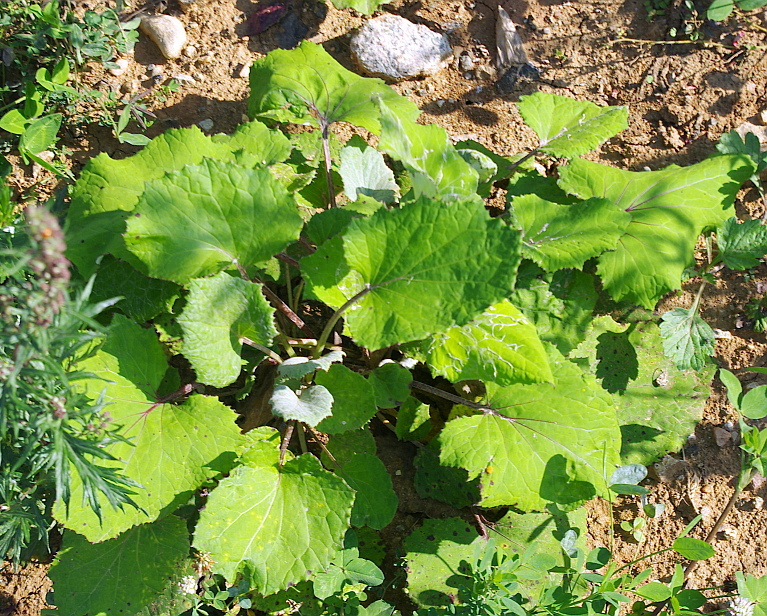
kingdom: Plantae
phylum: Tracheophyta
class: Magnoliopsida
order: Asterales
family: Asteraceae
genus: Tussilago
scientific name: Tussilago farfara
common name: Coltsfoot
